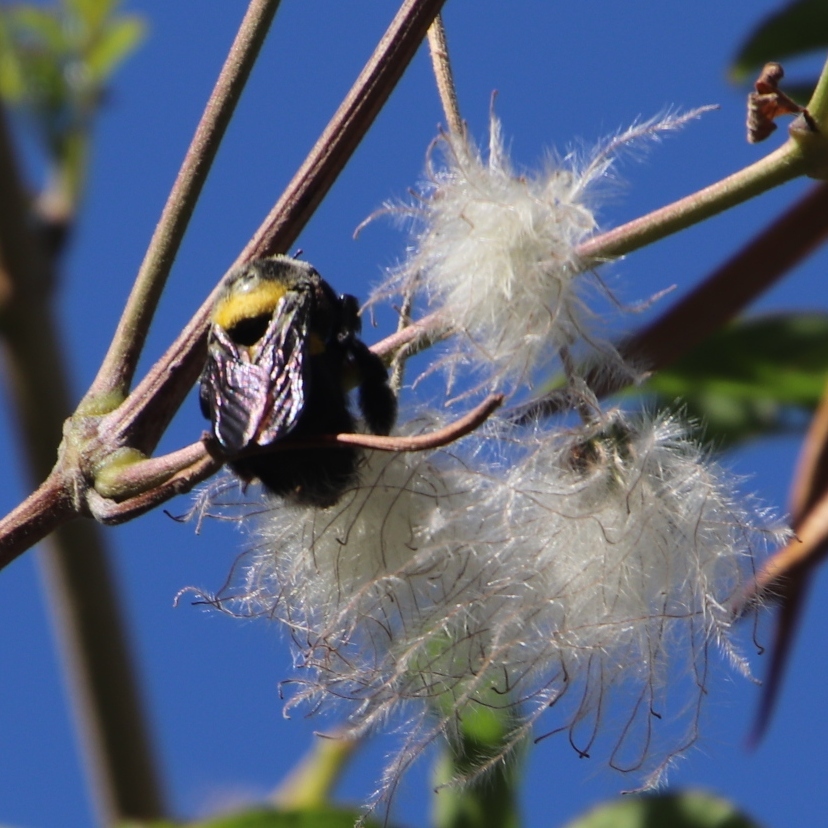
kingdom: Animalia
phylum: Arthropoda
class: Insecta
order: Hymenoptera
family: Apidae
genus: Xylocopa
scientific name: Xylocopa caffra
